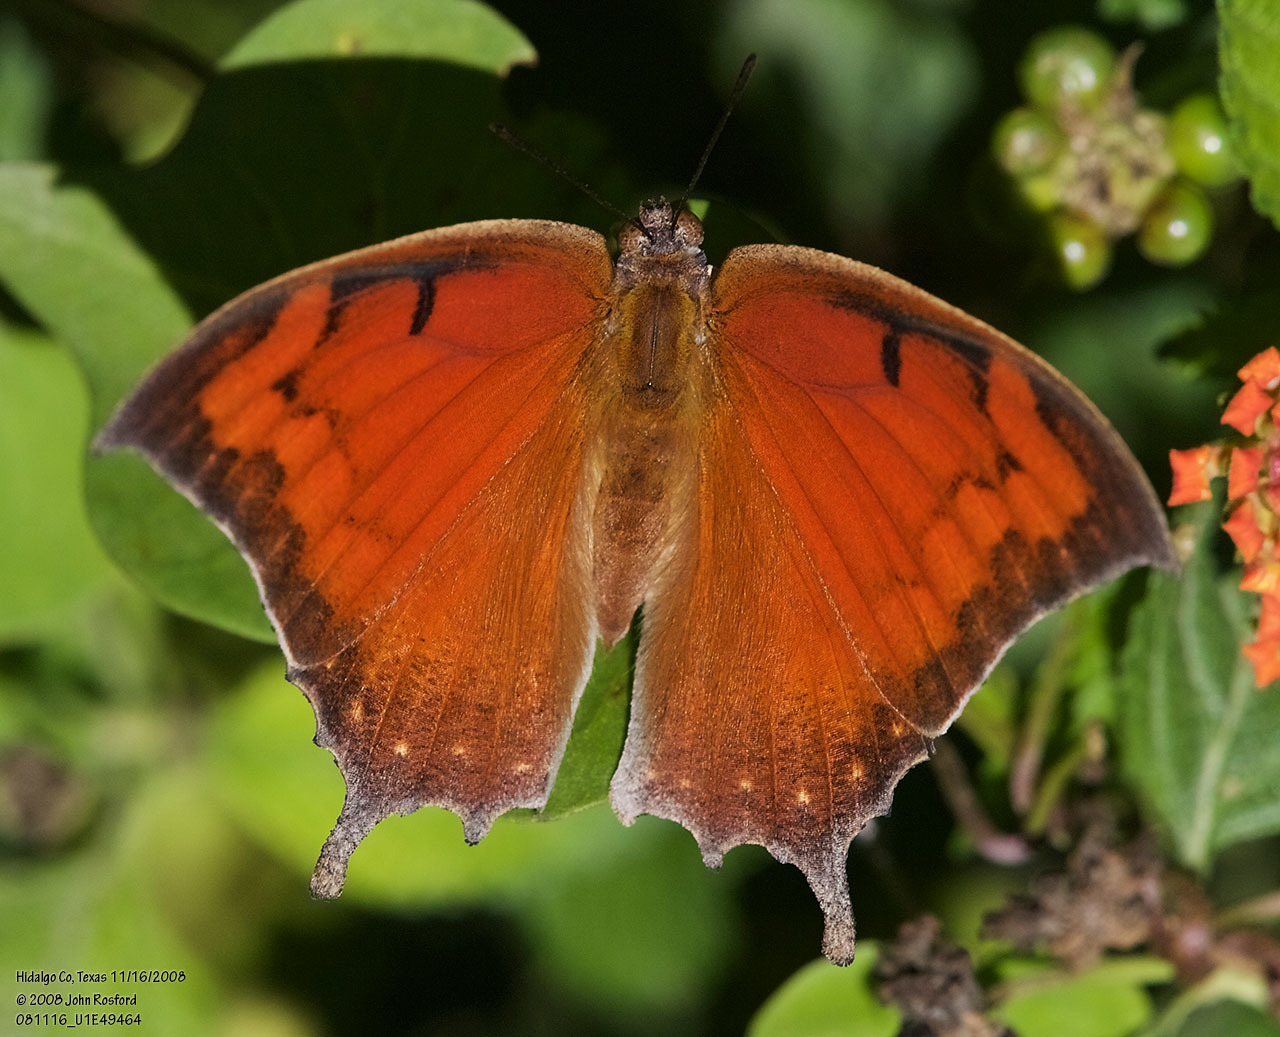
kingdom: Animalia
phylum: Arthropoda
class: Insecta
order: Lepidoptera
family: Nymphalidae
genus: Anaea
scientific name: Anaea aidea
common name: Tropical leafwing
